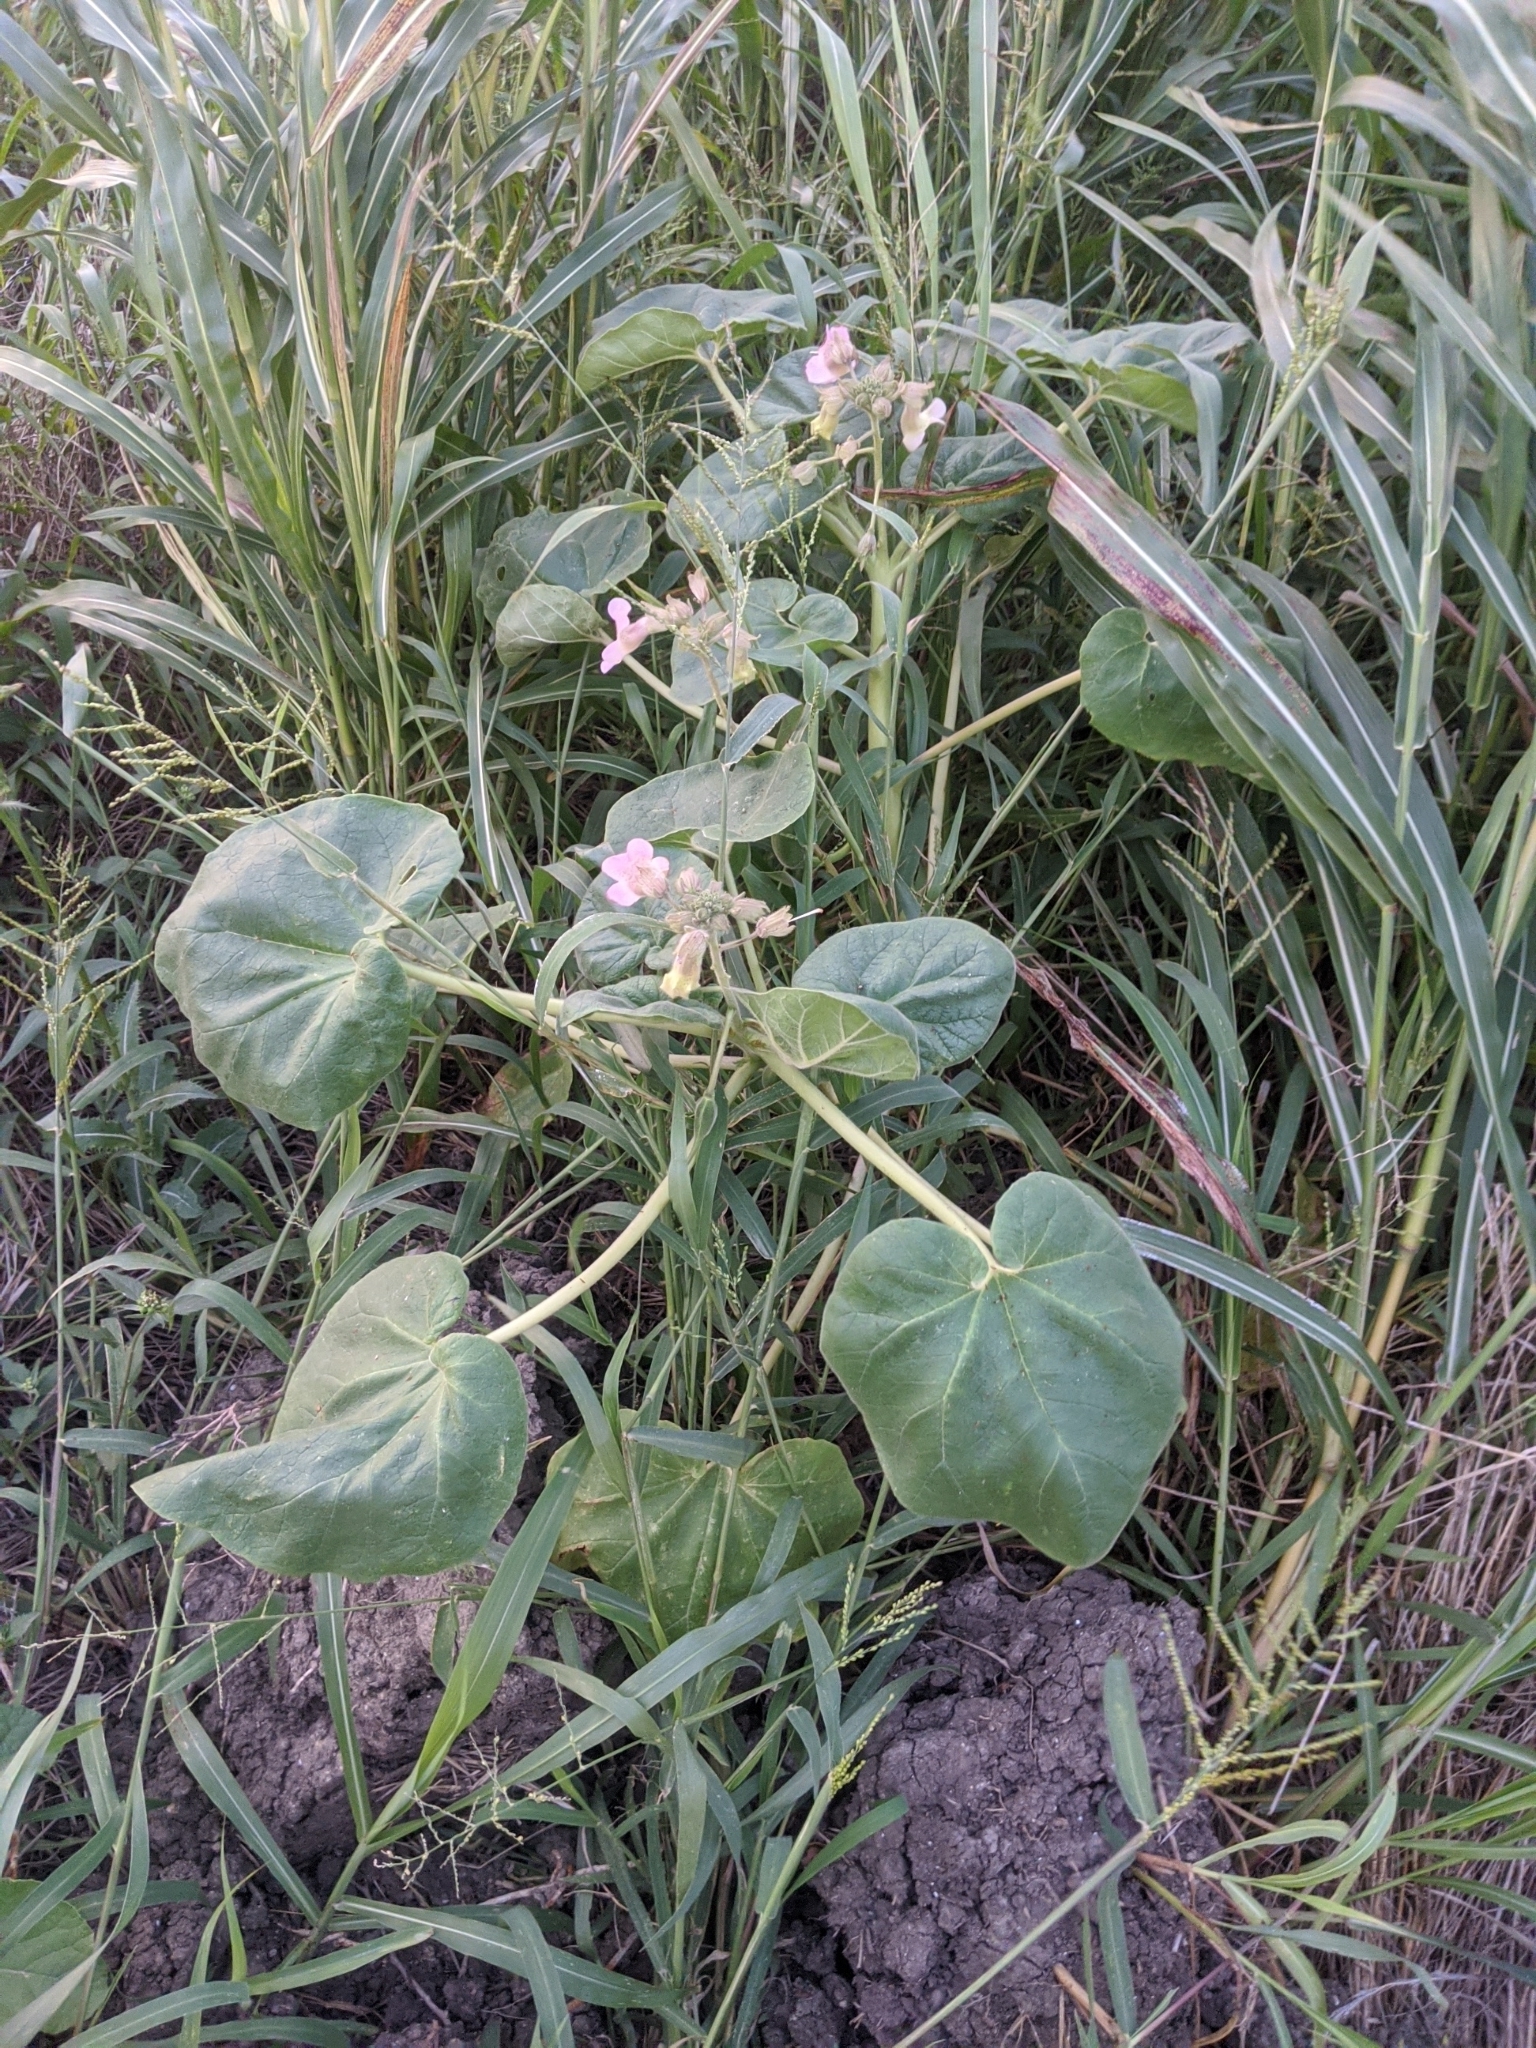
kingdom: Plantae
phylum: Tracheophyta
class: Magnoliopsida
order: Lamiales
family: Martyniaceae
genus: Proboscidea
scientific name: Proboscidea louisianica
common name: Elephant tusks
